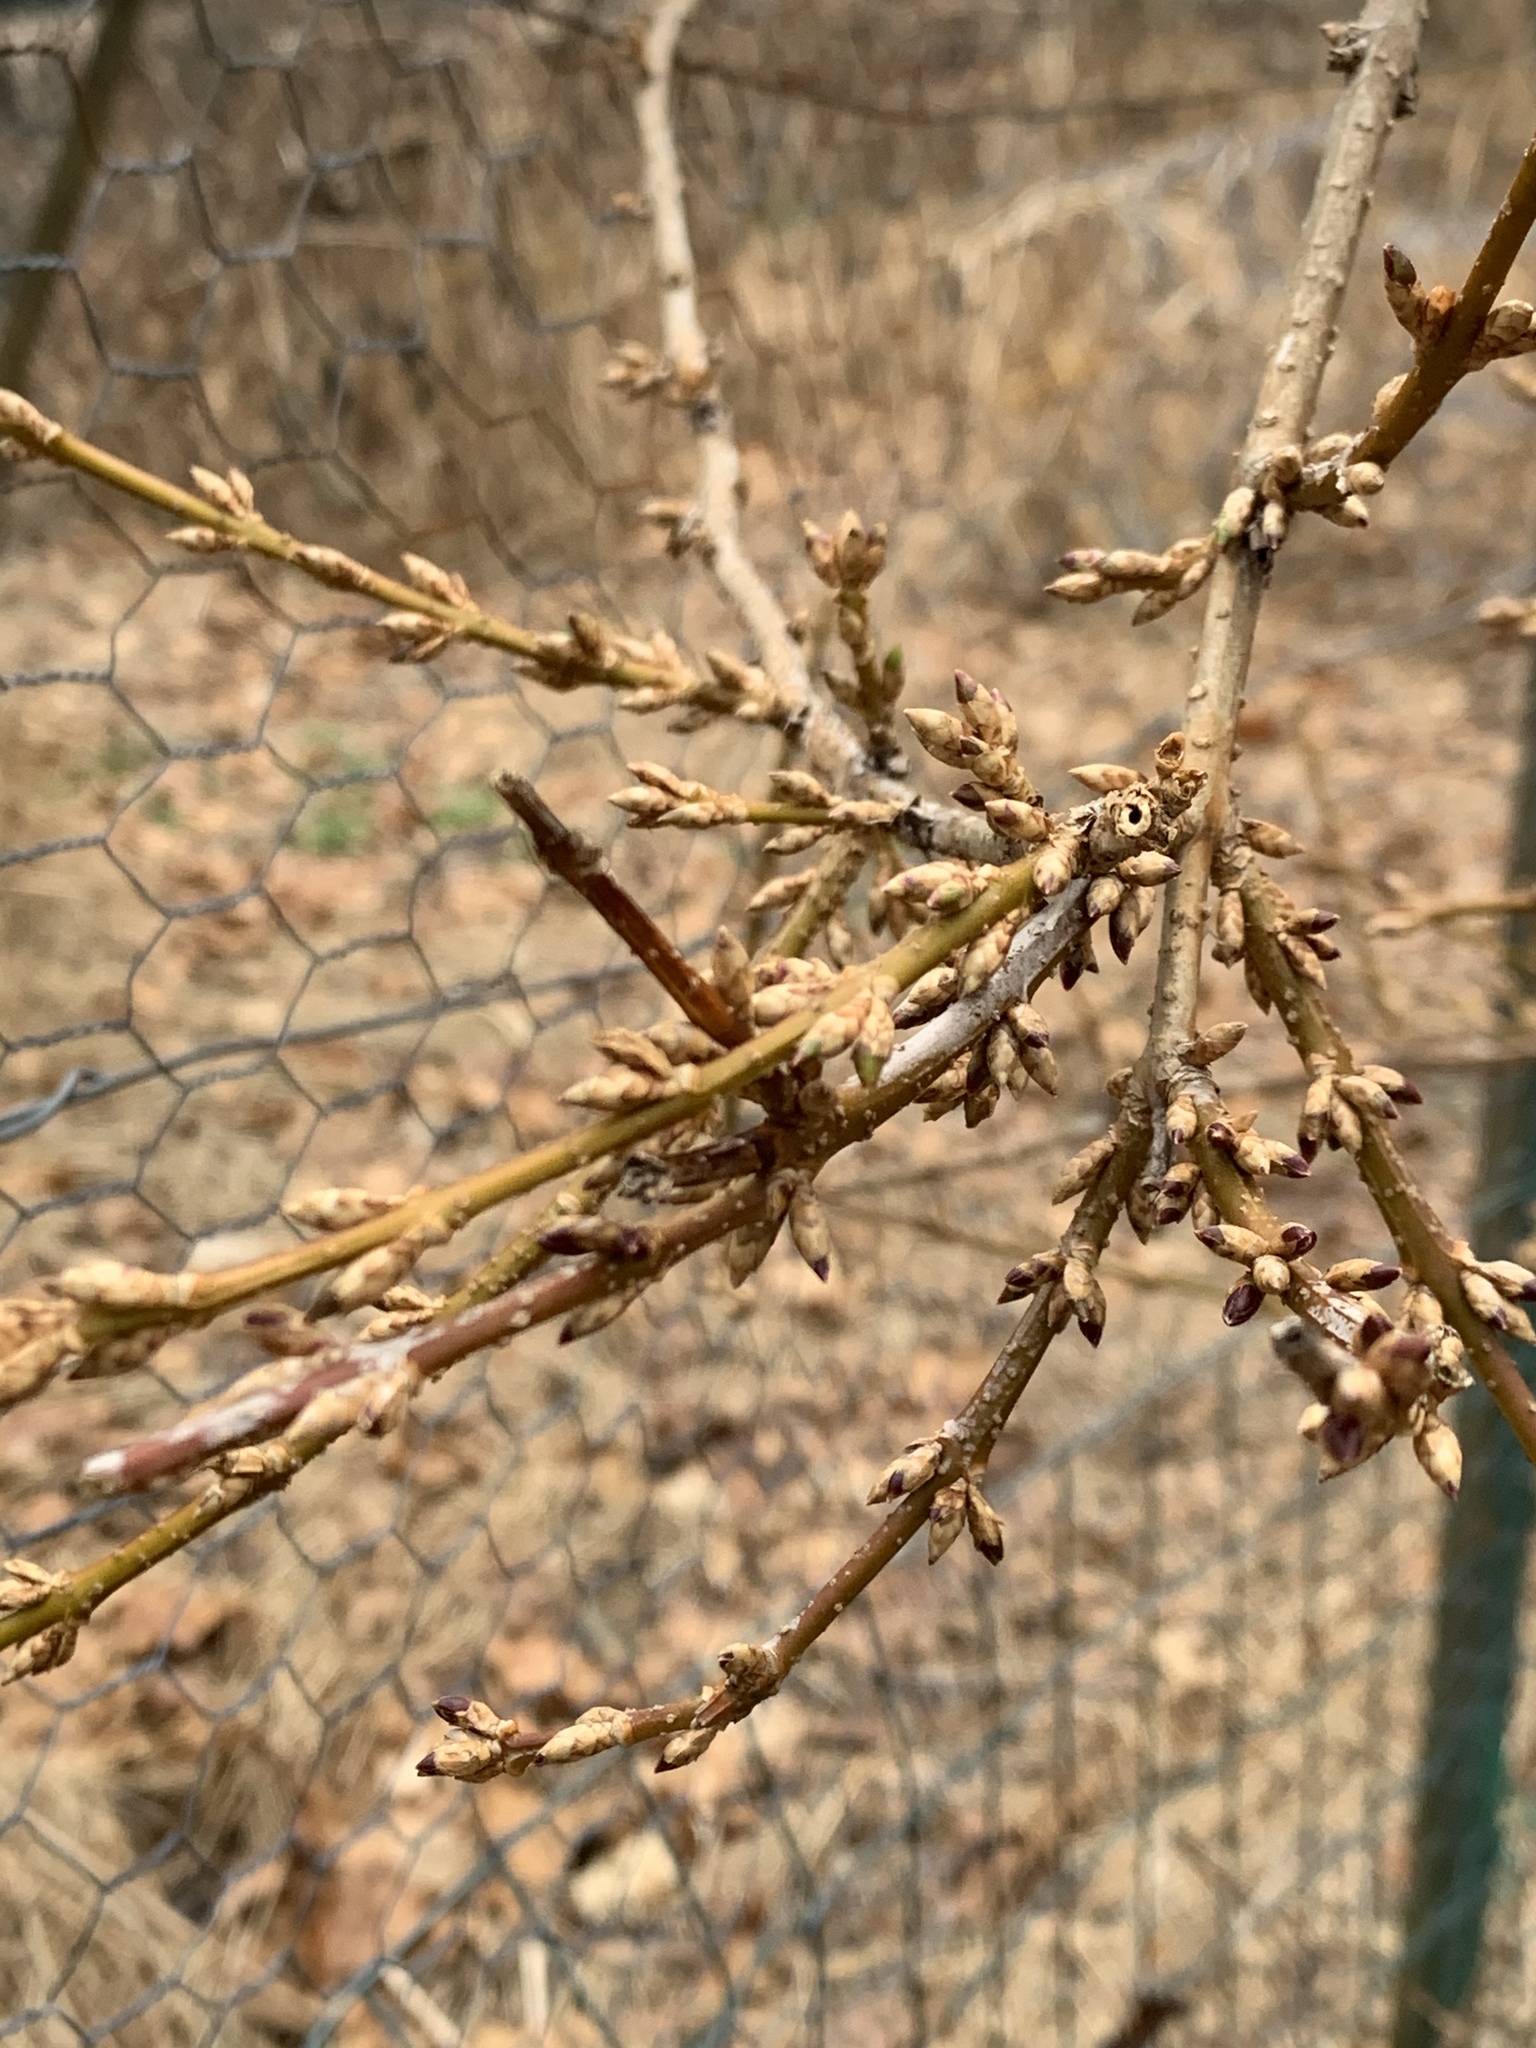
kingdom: Plantae
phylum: Tracheophyta
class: Magnoliopsida
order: Lamiales
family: Oleaceae
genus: Forsythia
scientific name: Forsythia
